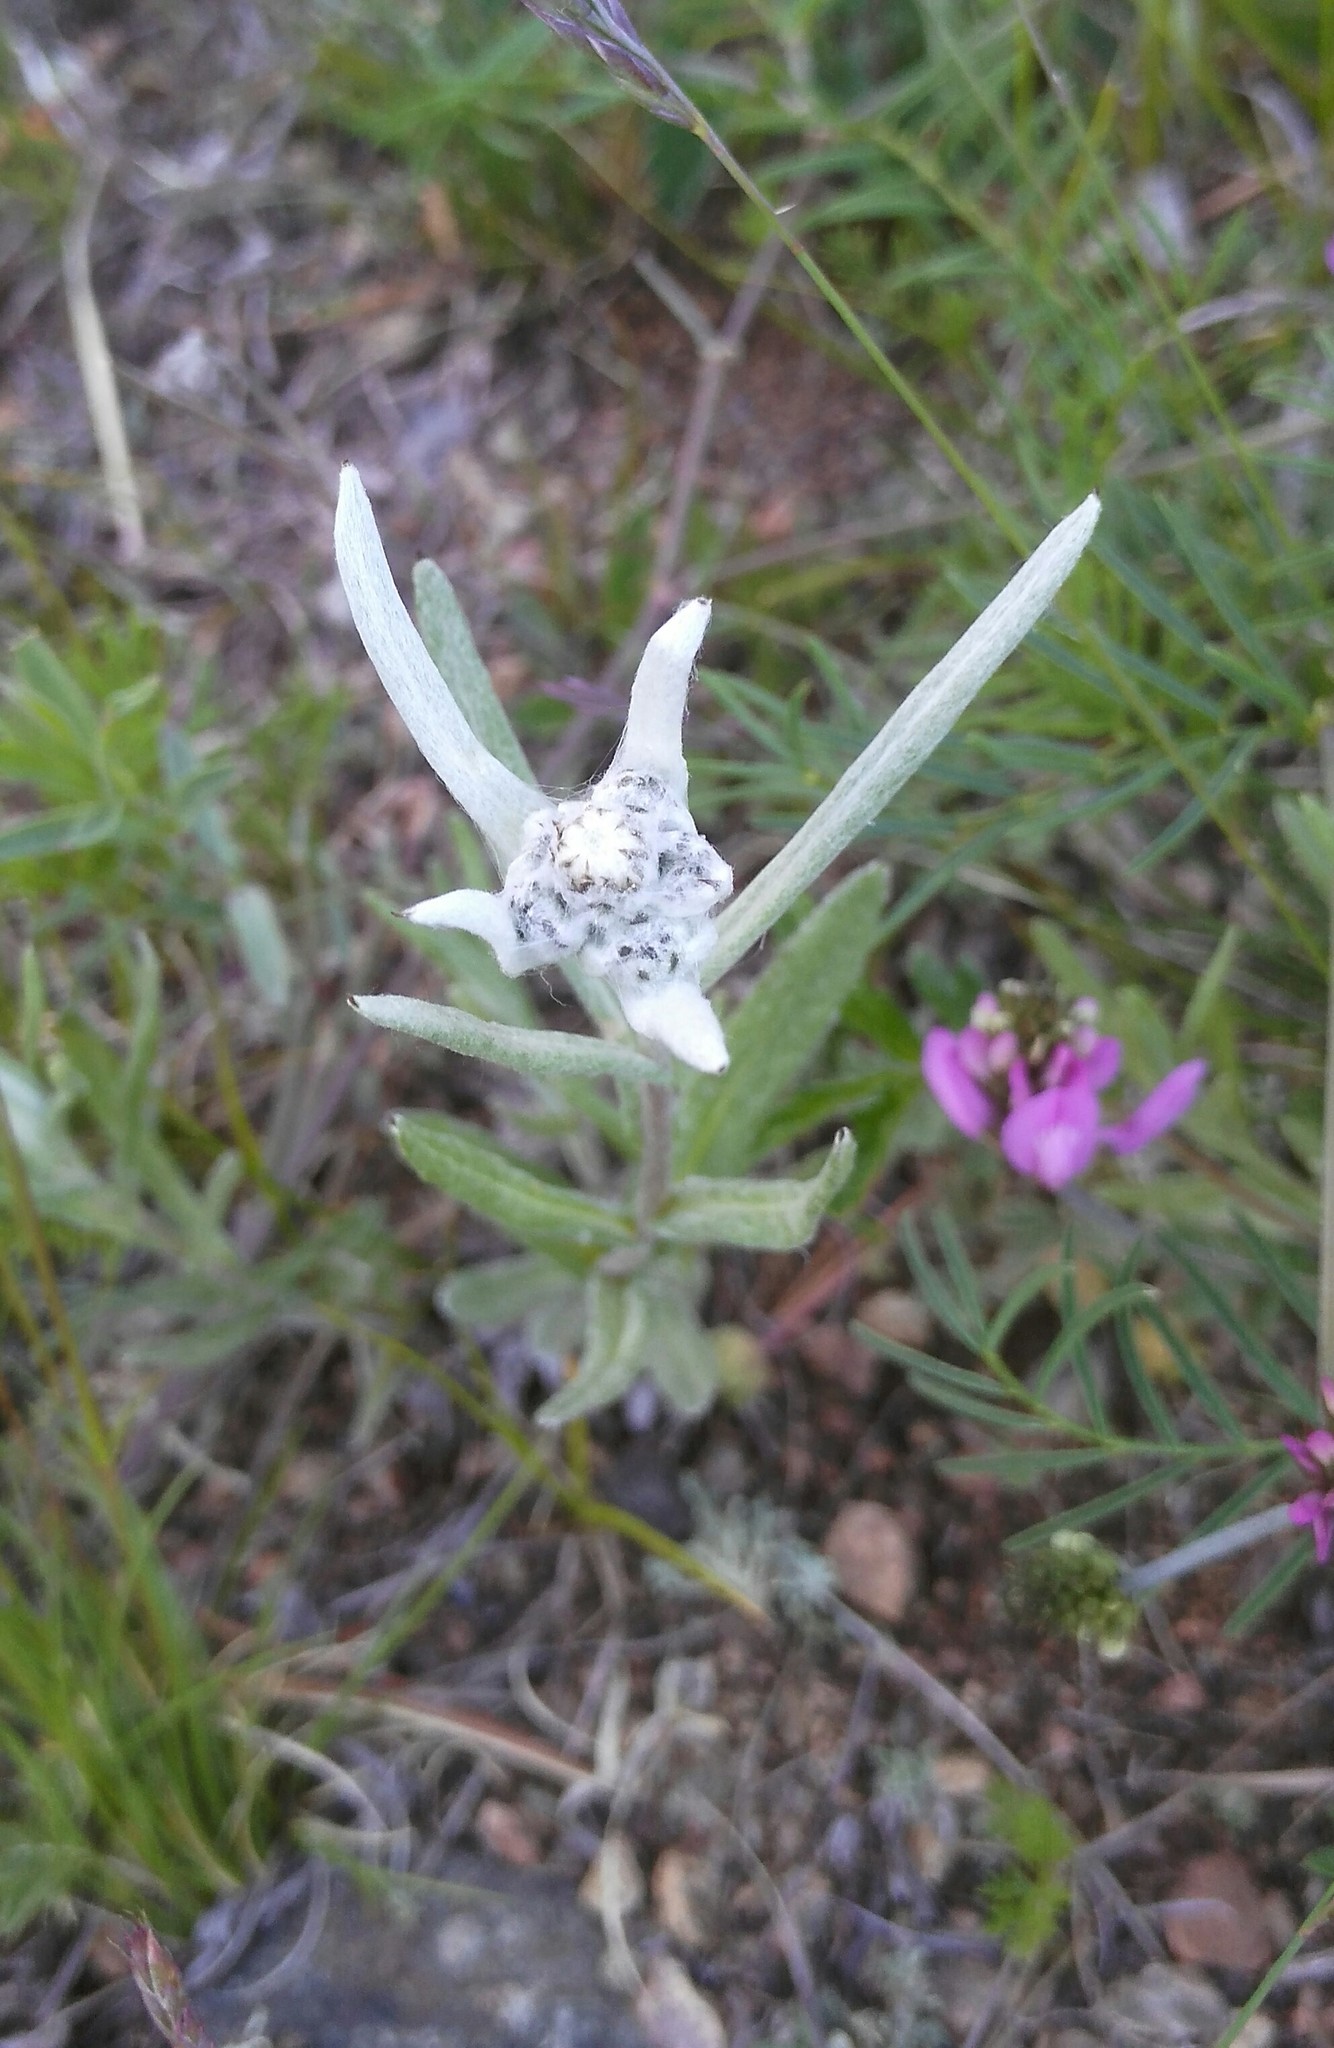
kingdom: Plantae
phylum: Tracheophyta
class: Magnoliopsida
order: Asterales
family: Asteraceae
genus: Leontopodium
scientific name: Leontopodium leontopodioides
